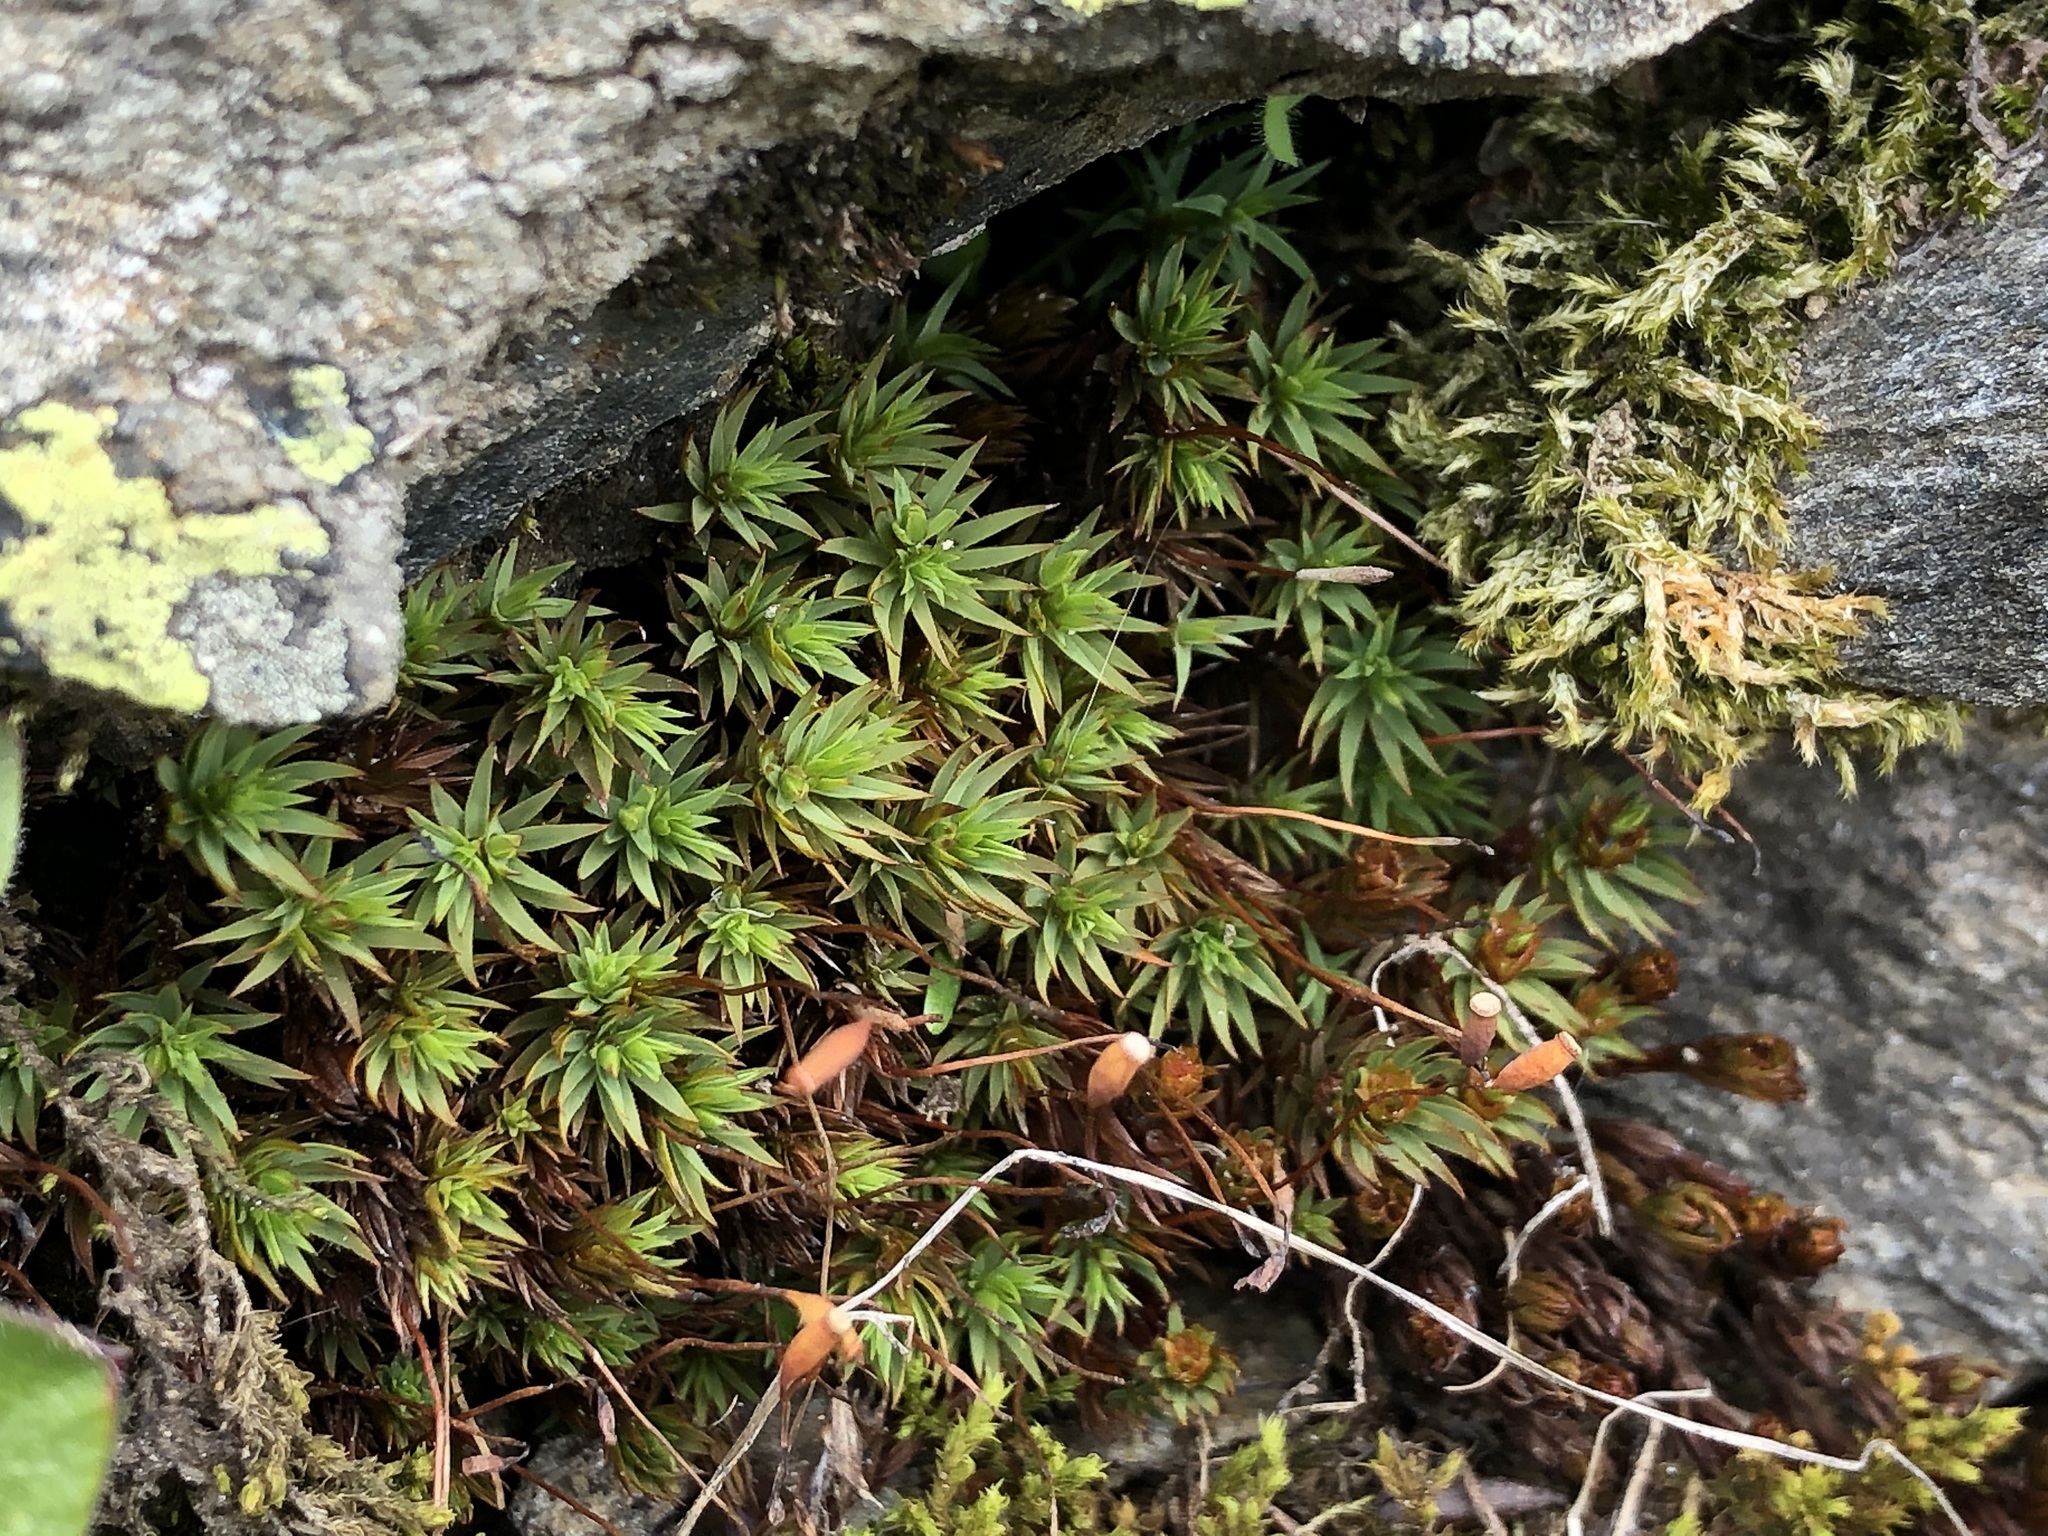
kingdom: Plantae
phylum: Bryophyta
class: Polytrichopsida
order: Polytrichales
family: Polytrichaceae
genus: Pogonatum
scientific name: Pogonatum urnigerum
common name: Urn hair moss
